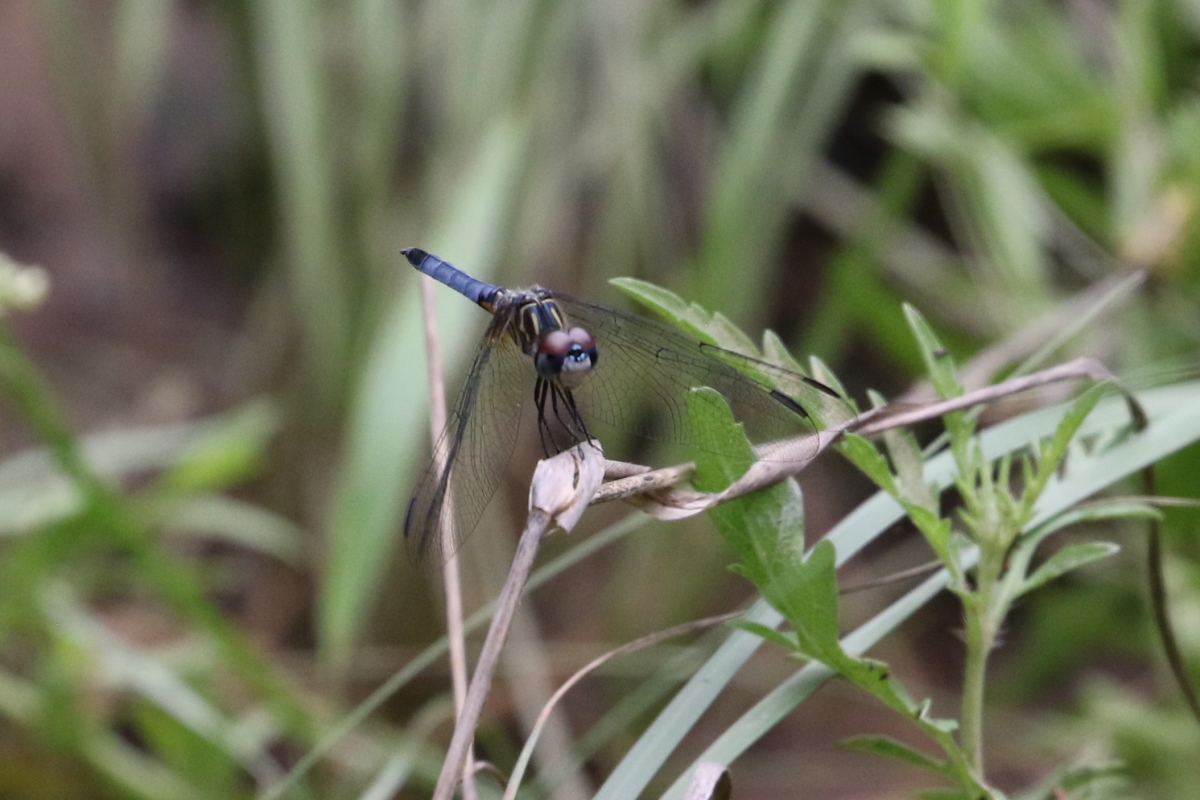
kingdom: Animalia
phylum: Arthropoda
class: Insecta
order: Odonata
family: Libellulidae
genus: Pachydiplax
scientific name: Pachydiplax longipennis
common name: Blue dasher
